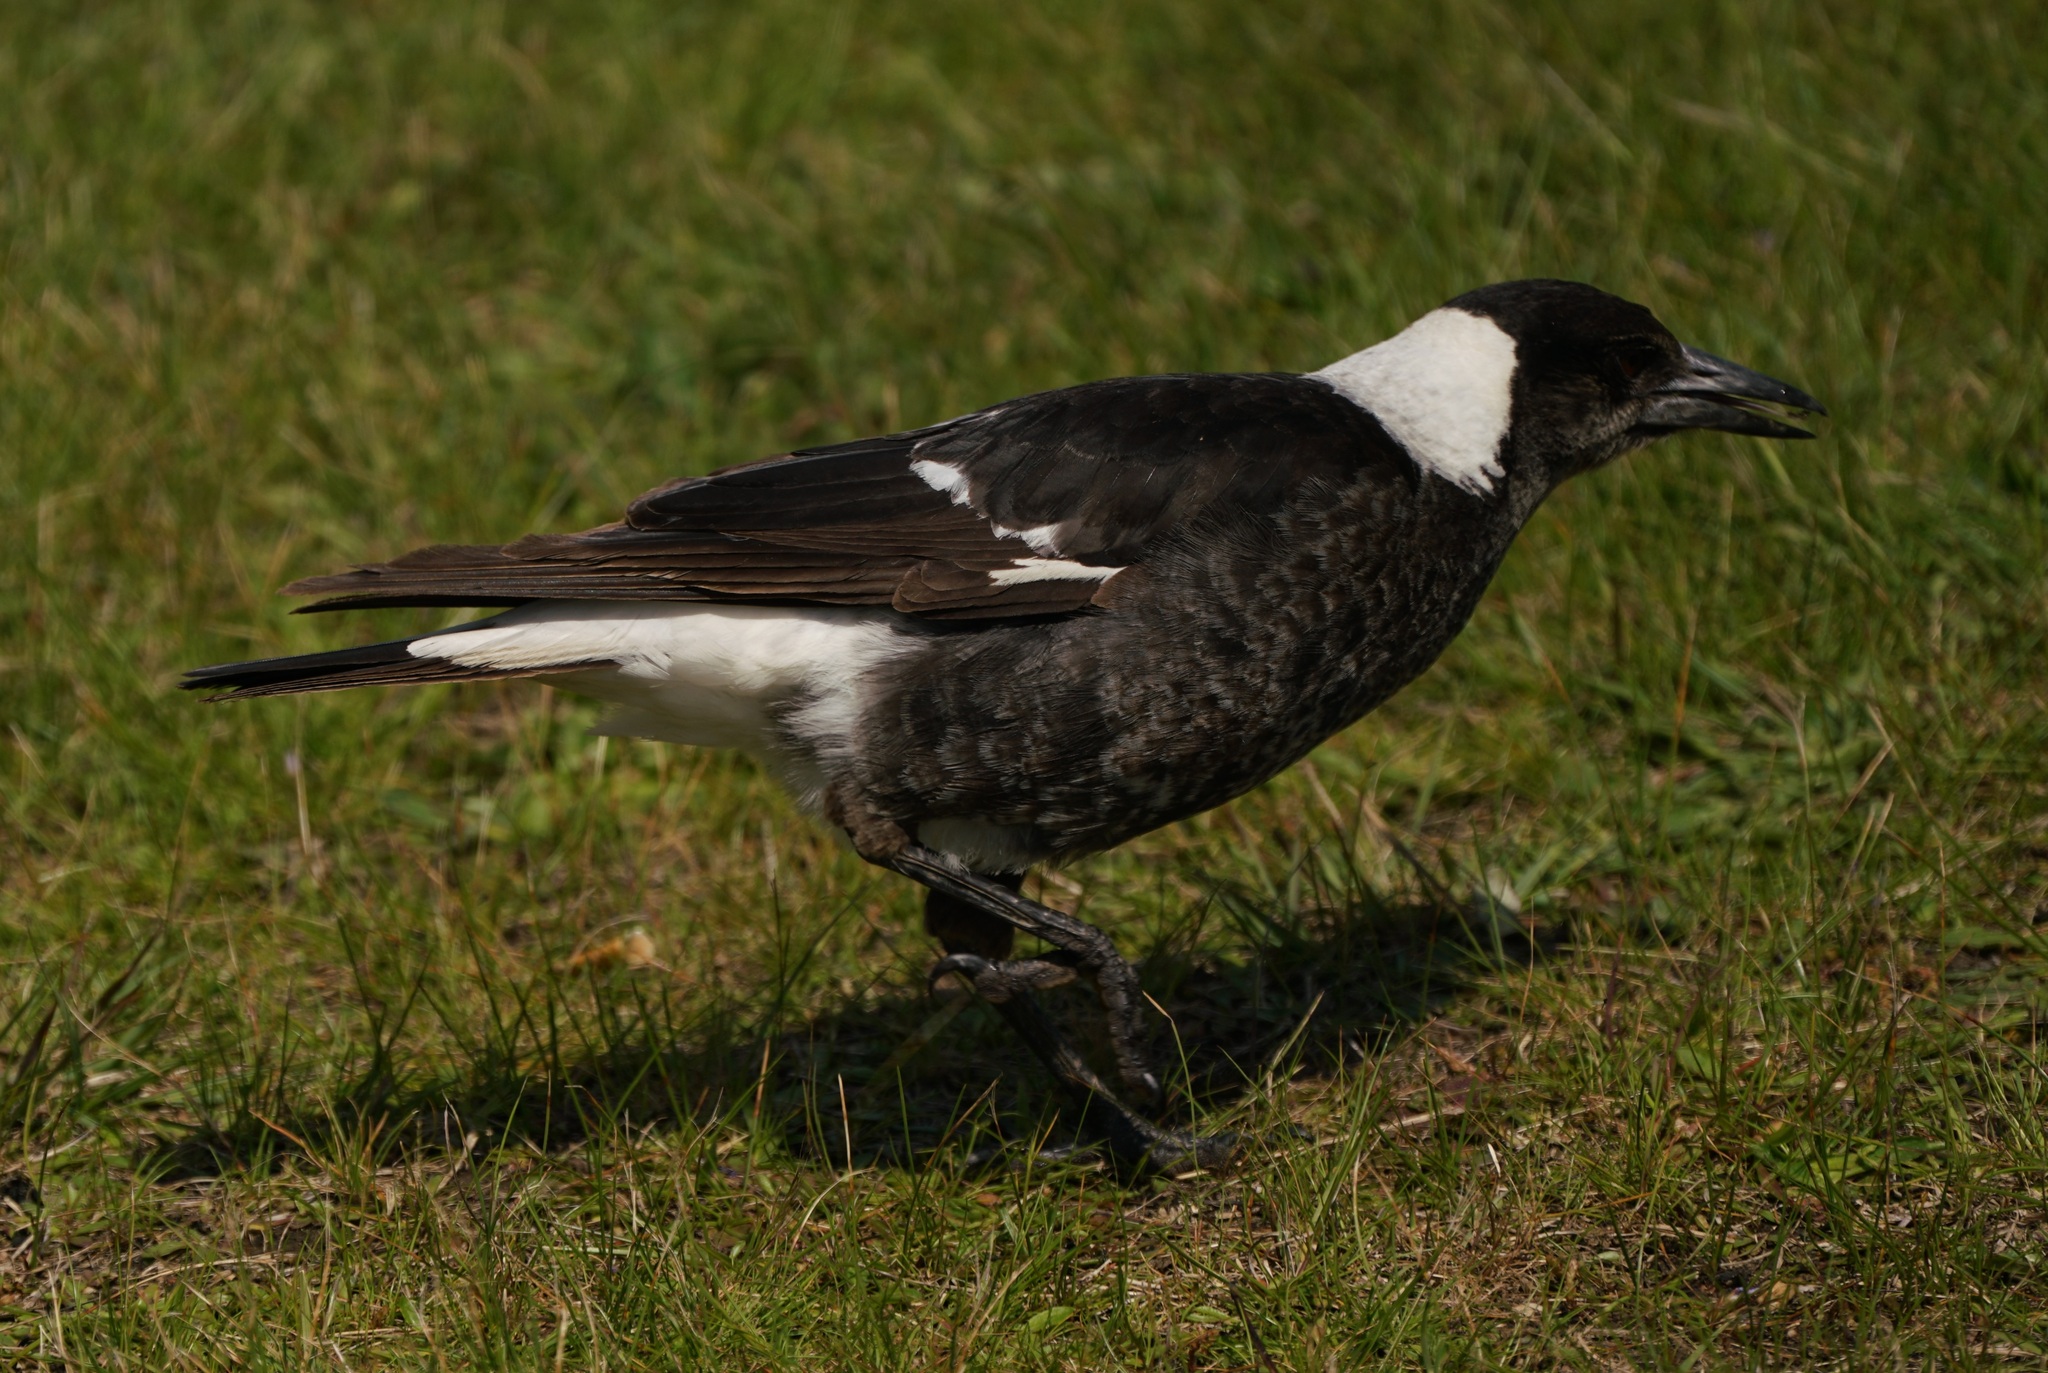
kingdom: Animalia
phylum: Chordata
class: Aves
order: Passeriformes
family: Cracticidae
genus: Gymnorhina
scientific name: Gymnorhina tibicen
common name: Australian magpie
